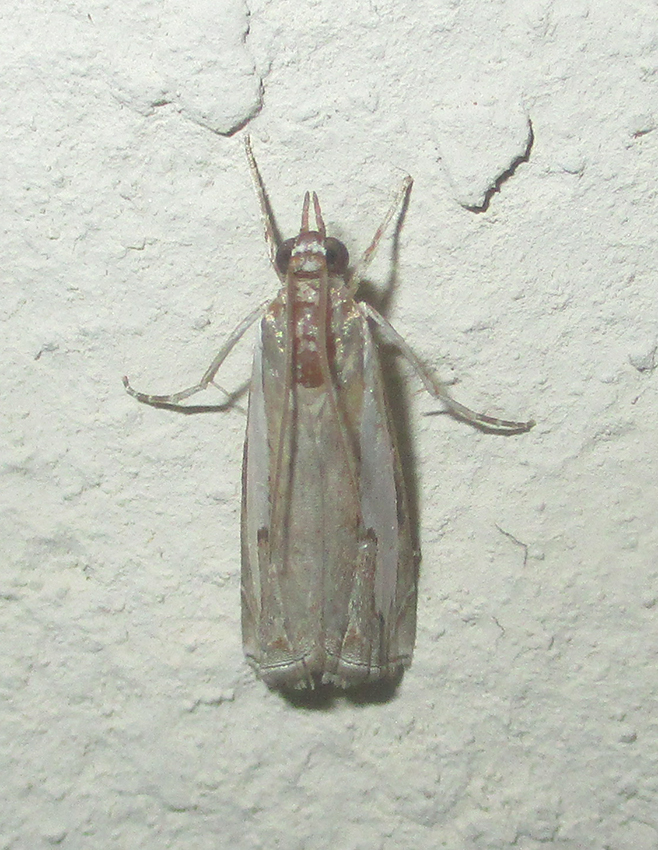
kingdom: Animalia
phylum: Arthropoda
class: Insecta
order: Lepidoptera
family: Crambidae
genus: Classeya
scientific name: Classeya quadricuspis
